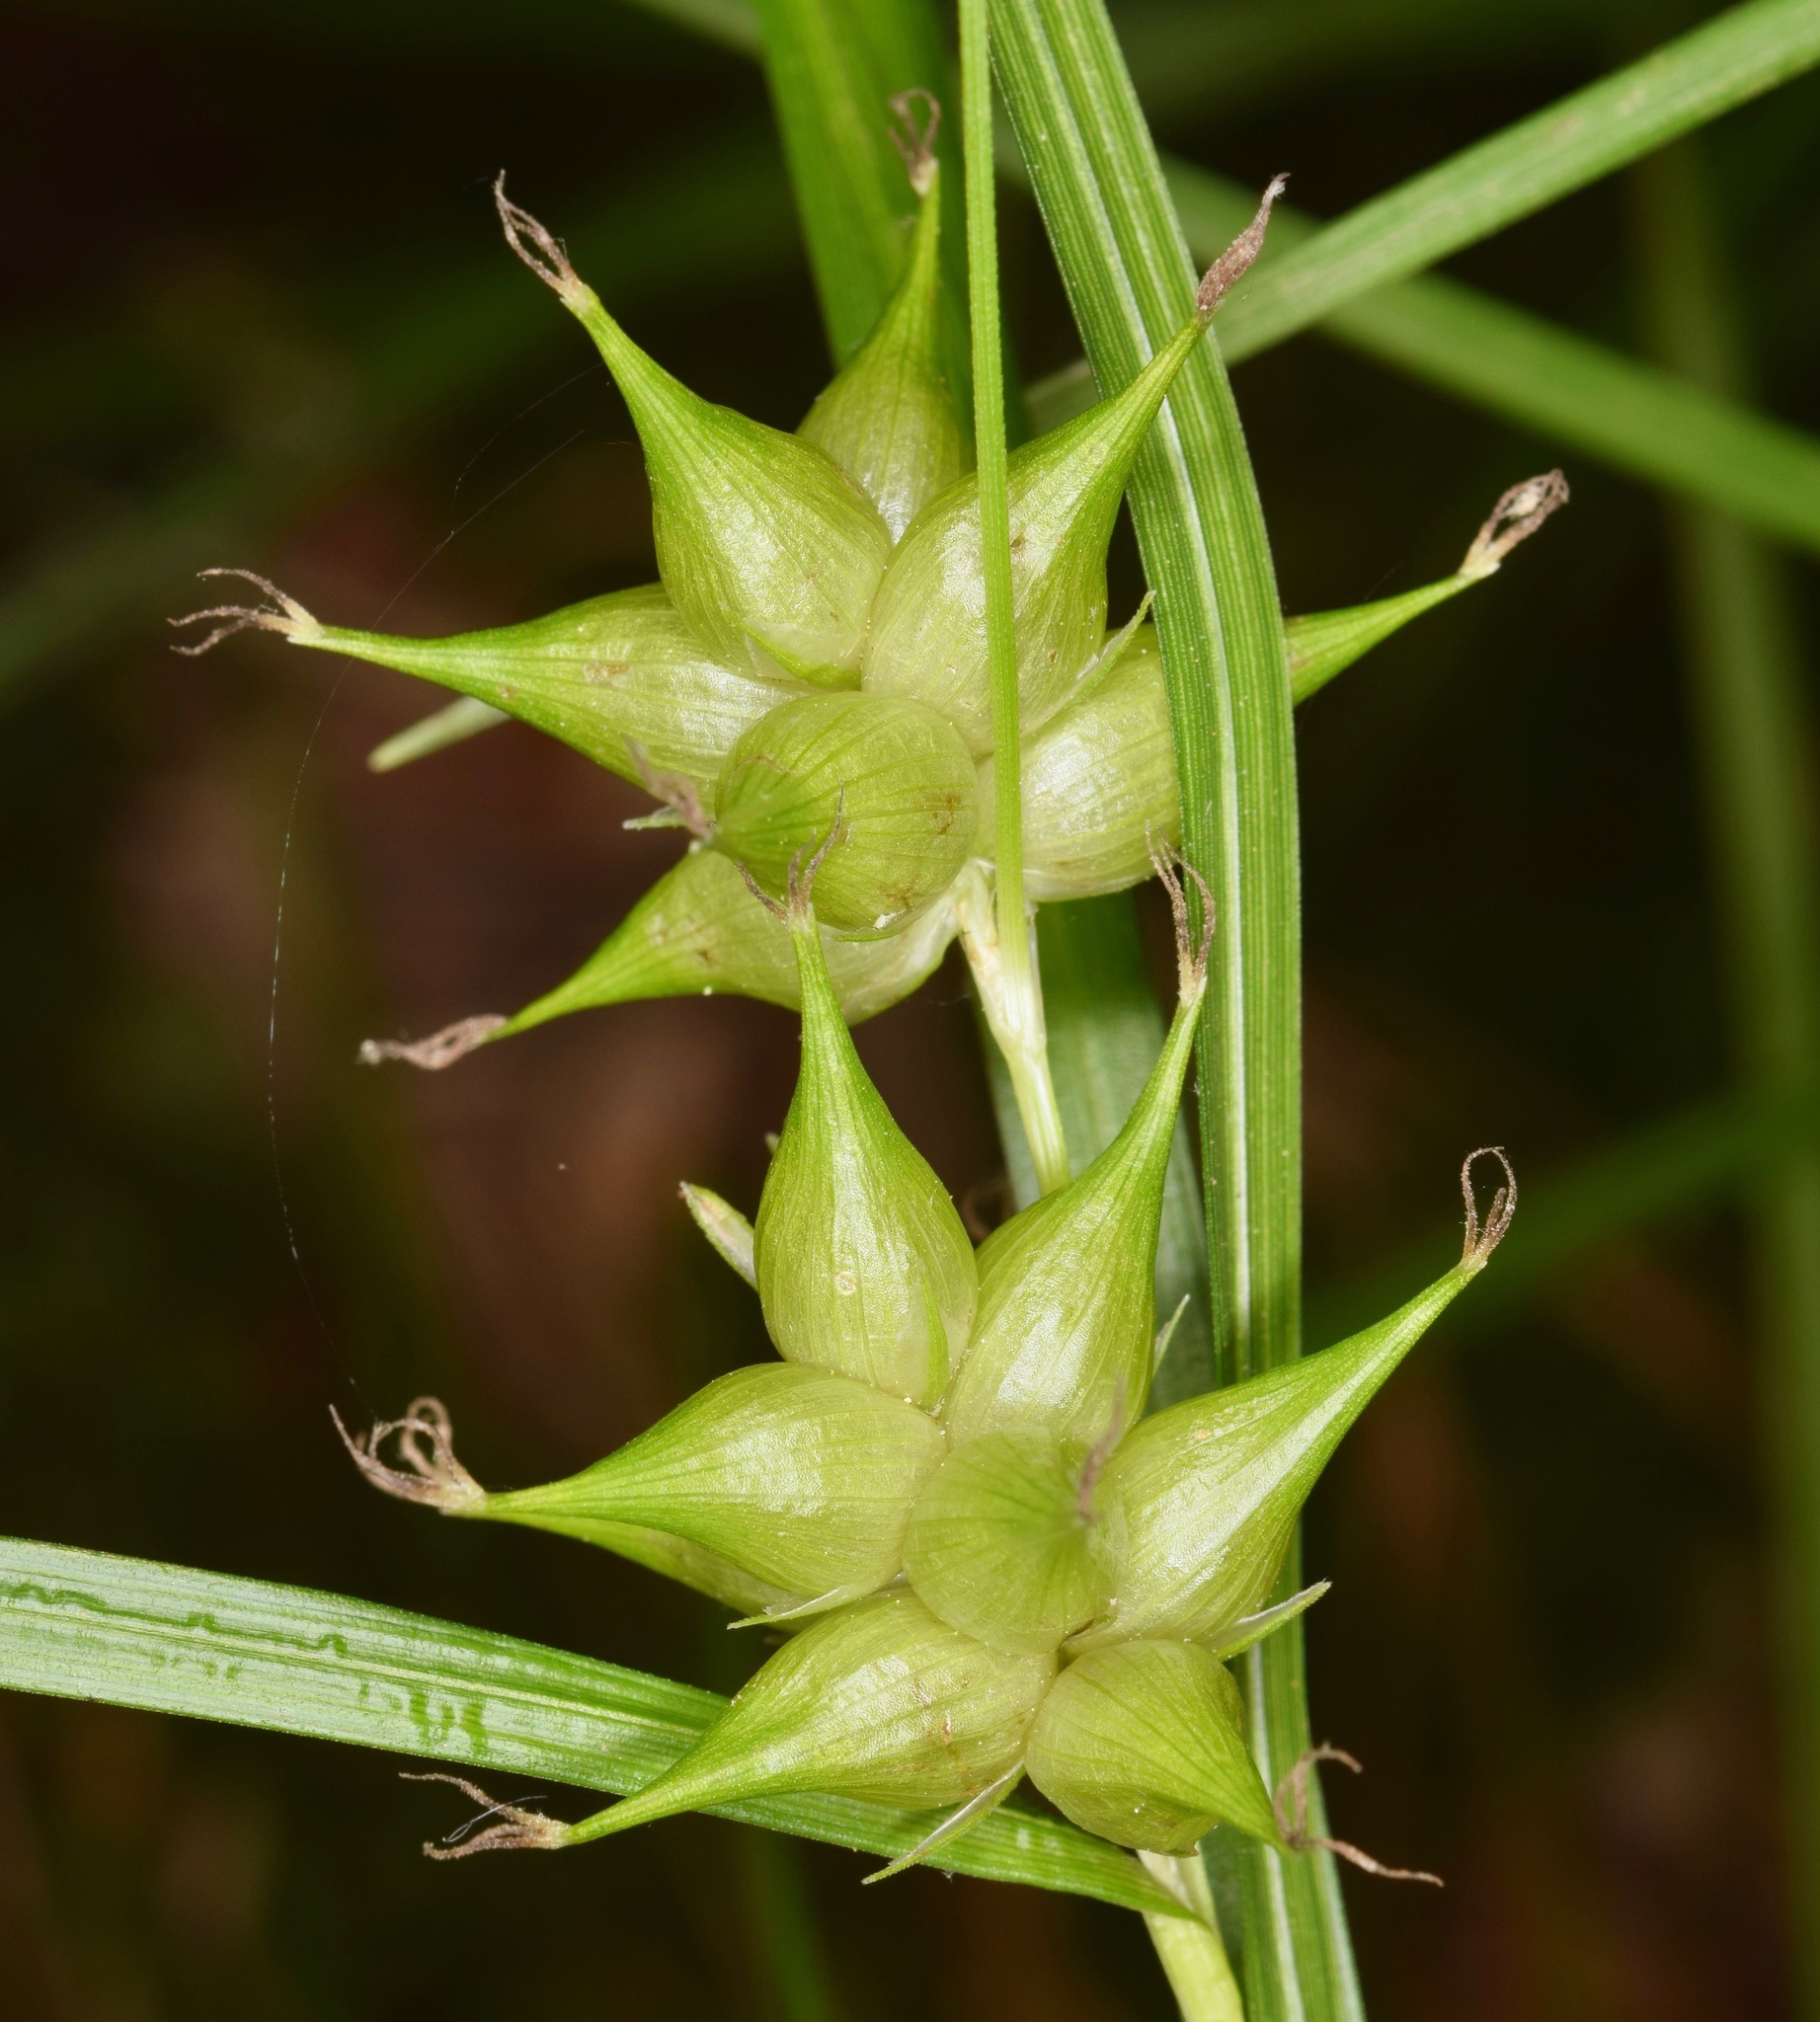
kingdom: Plantae
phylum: Tracheophyta
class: Liliopsida
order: Poales
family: Cyperaceae
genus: Carex
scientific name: Carex intumescens
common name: Greater bladder sedge
